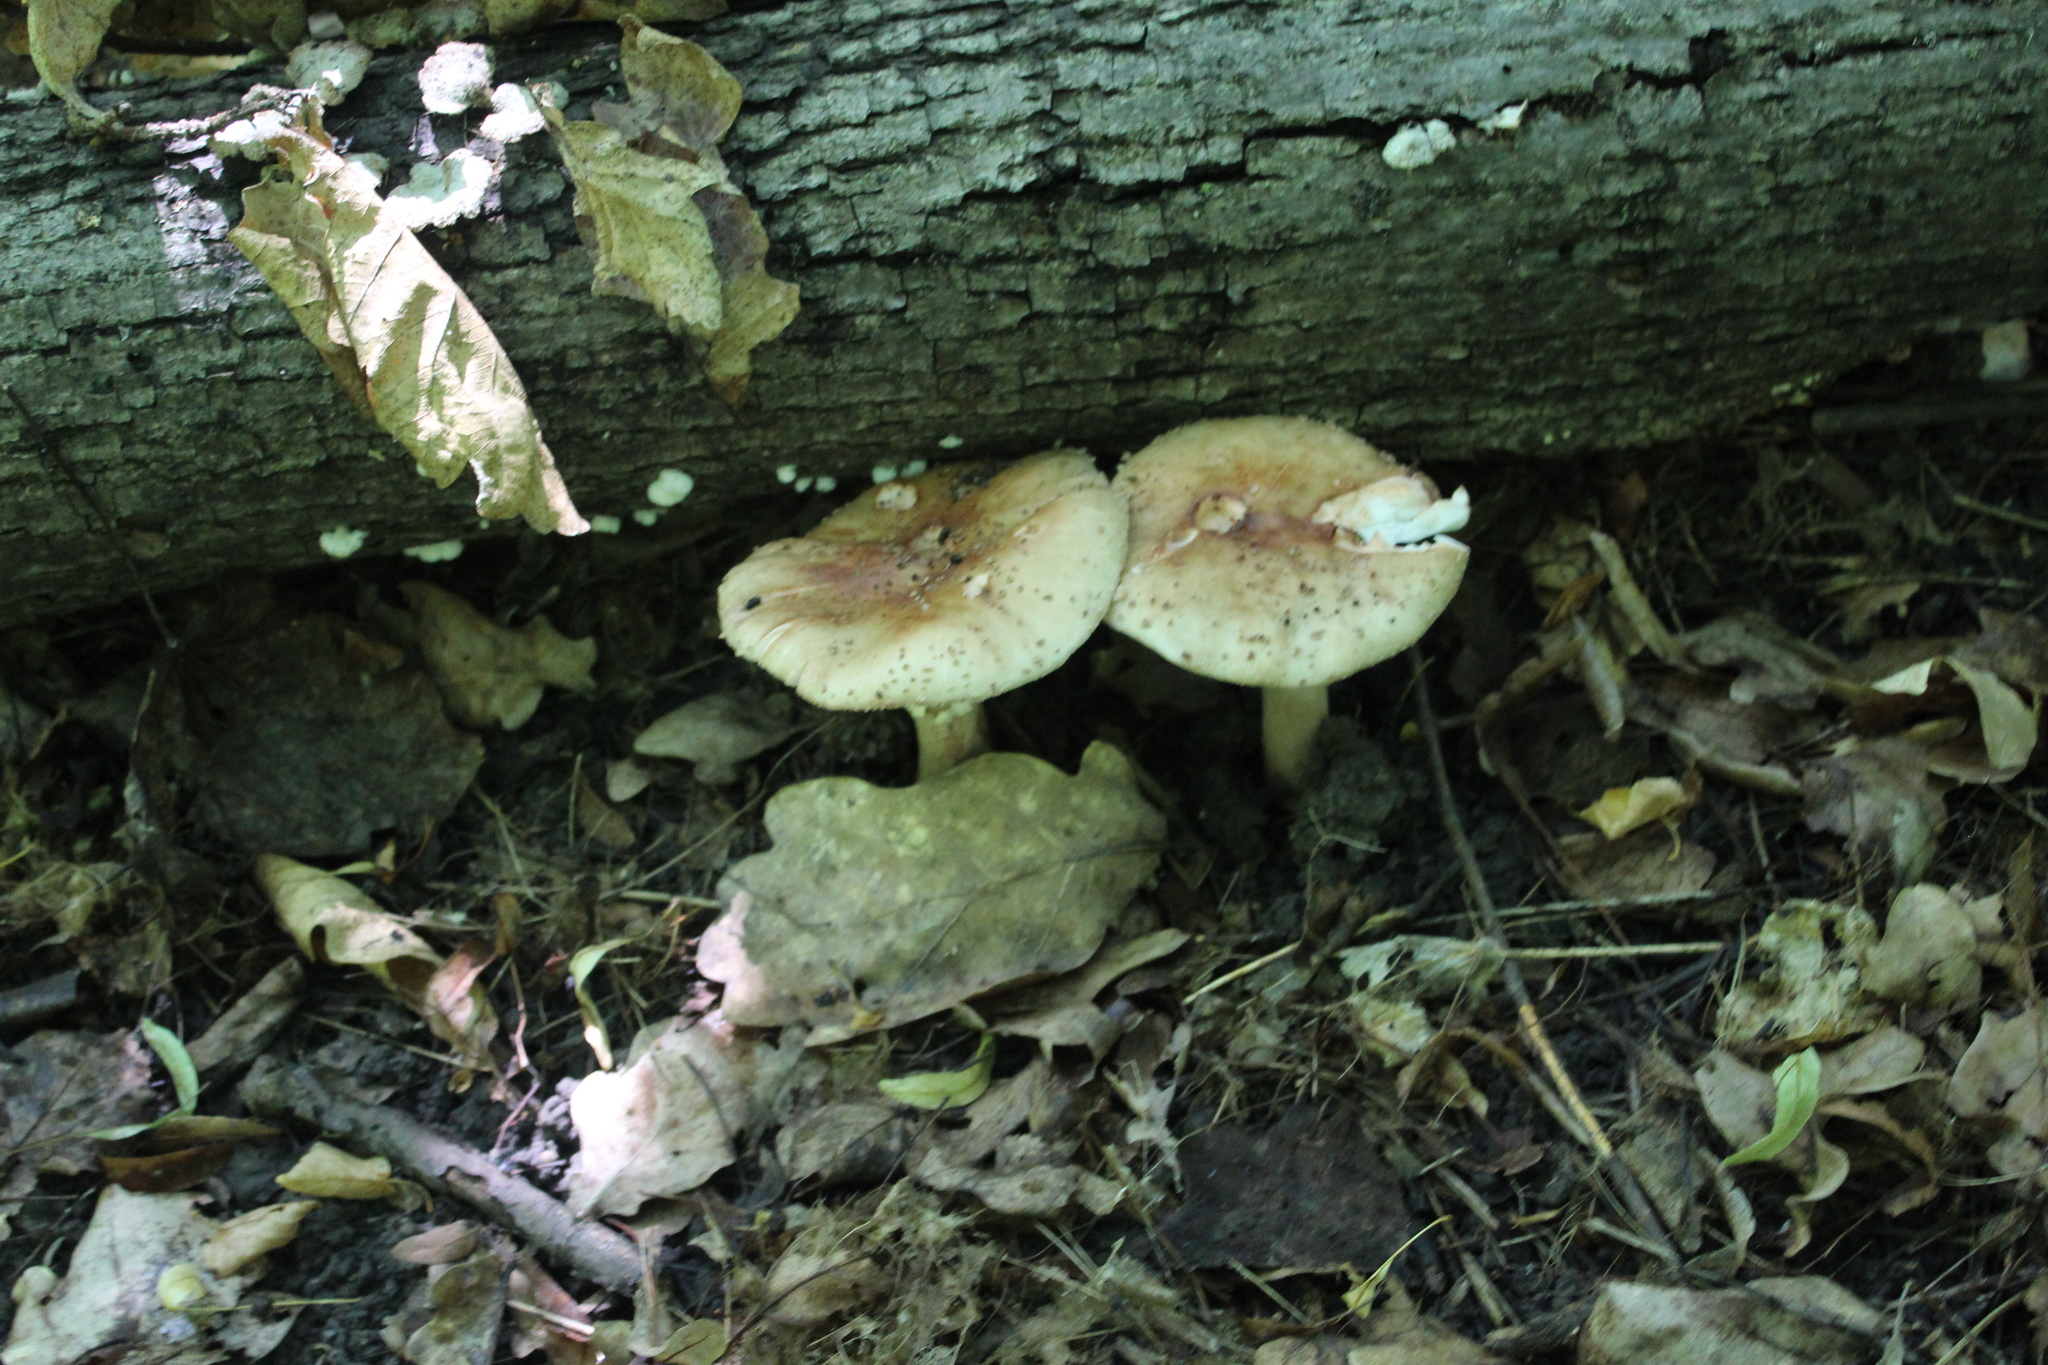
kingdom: Fungi
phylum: Basidiomycota
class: Agaricomycetes
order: Agaricales
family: Amanitaceae
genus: Amanita
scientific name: Amanita rubescens
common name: Blusher
